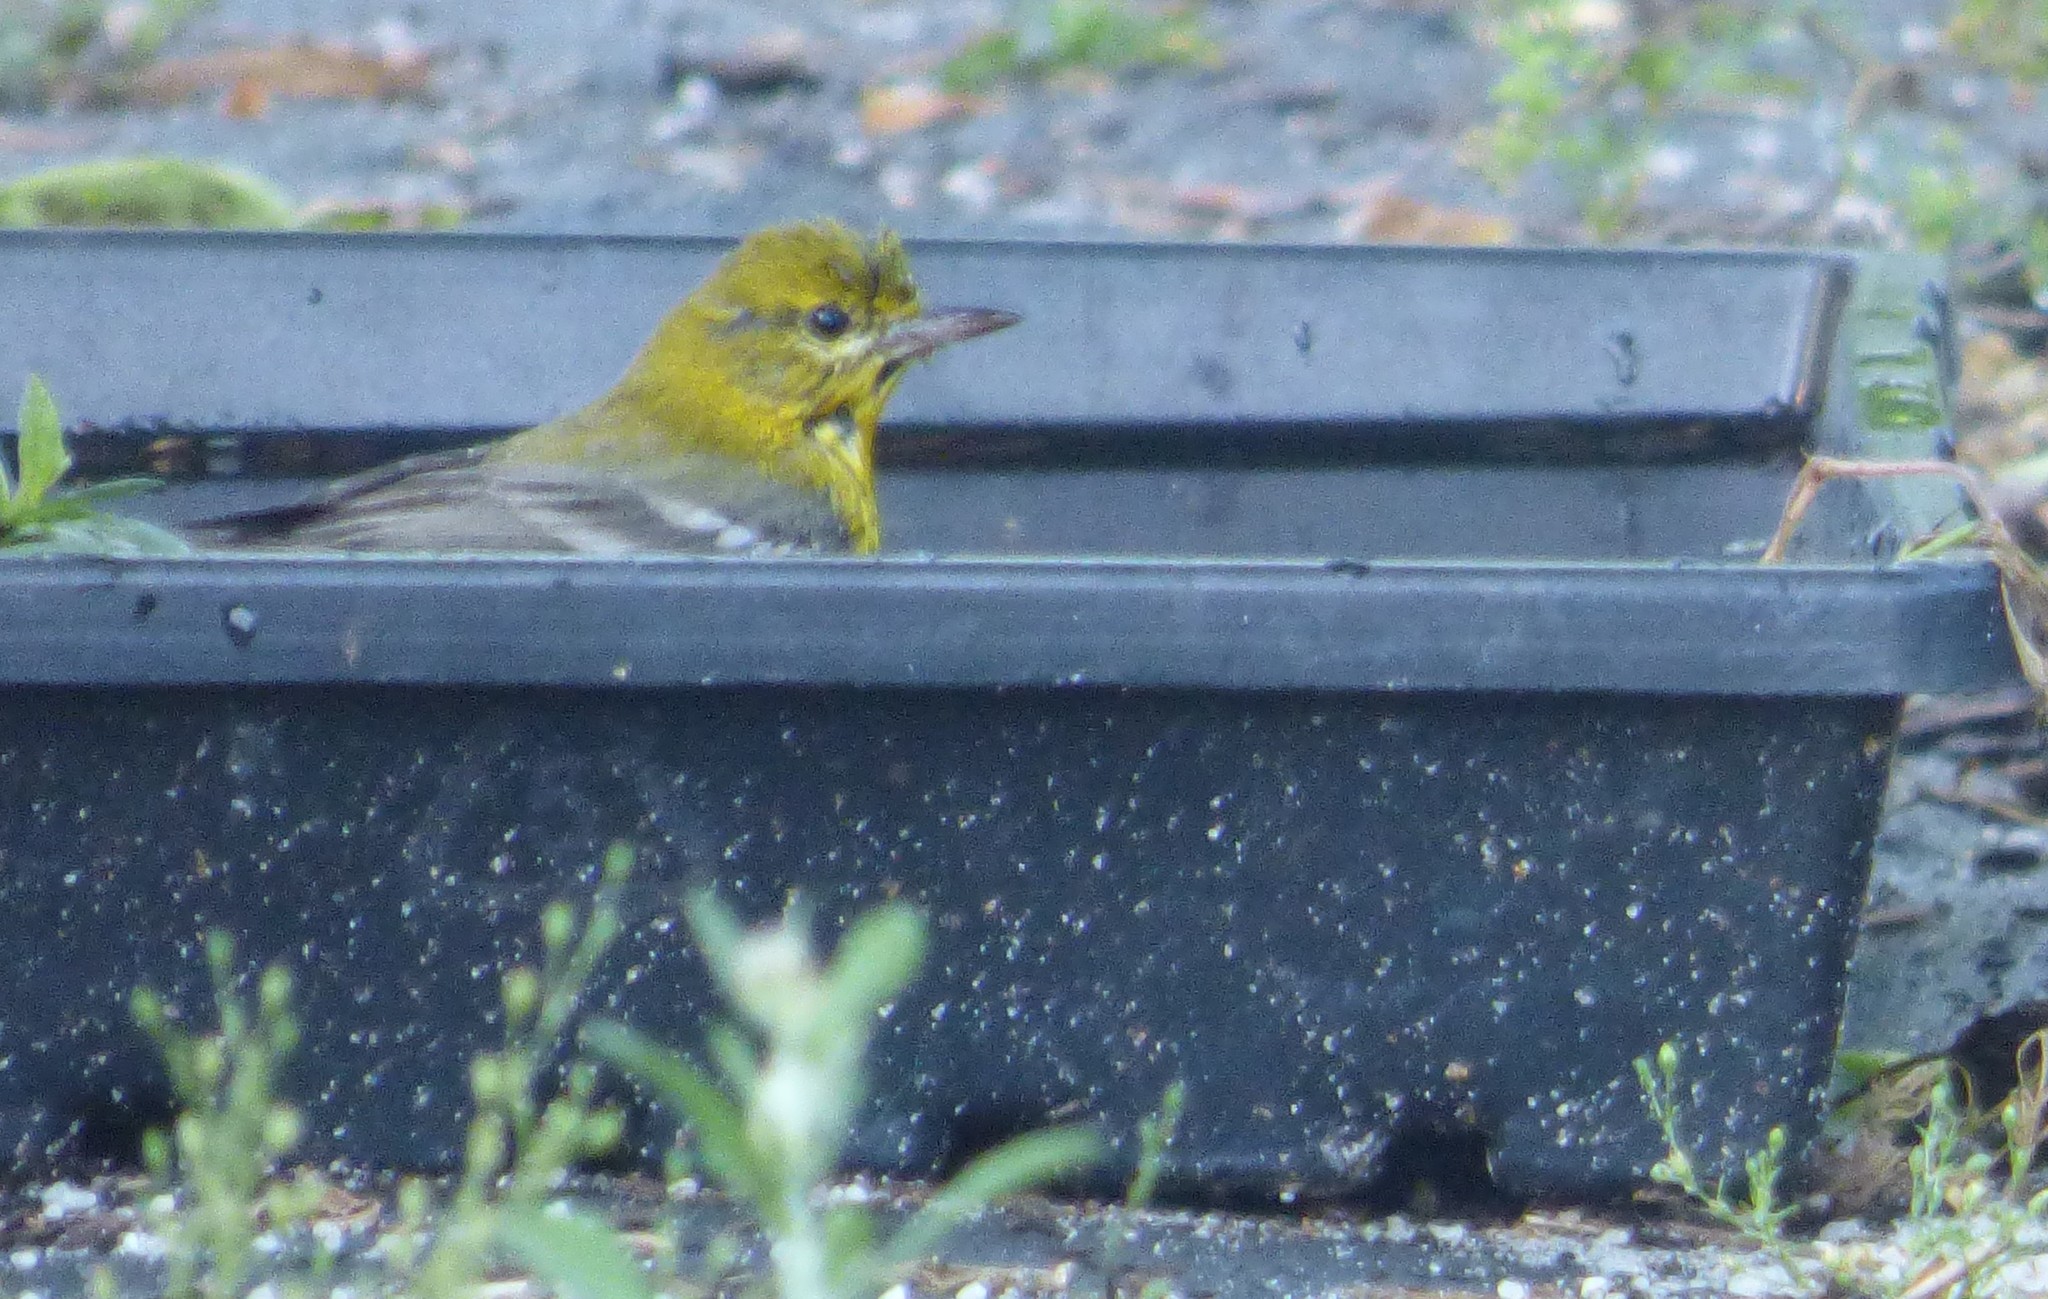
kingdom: Animalia
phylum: Chordata
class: Aves
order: Passeriformes
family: Parulidae
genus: Setophaga
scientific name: Setophaga pinus
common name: Pine warbler
